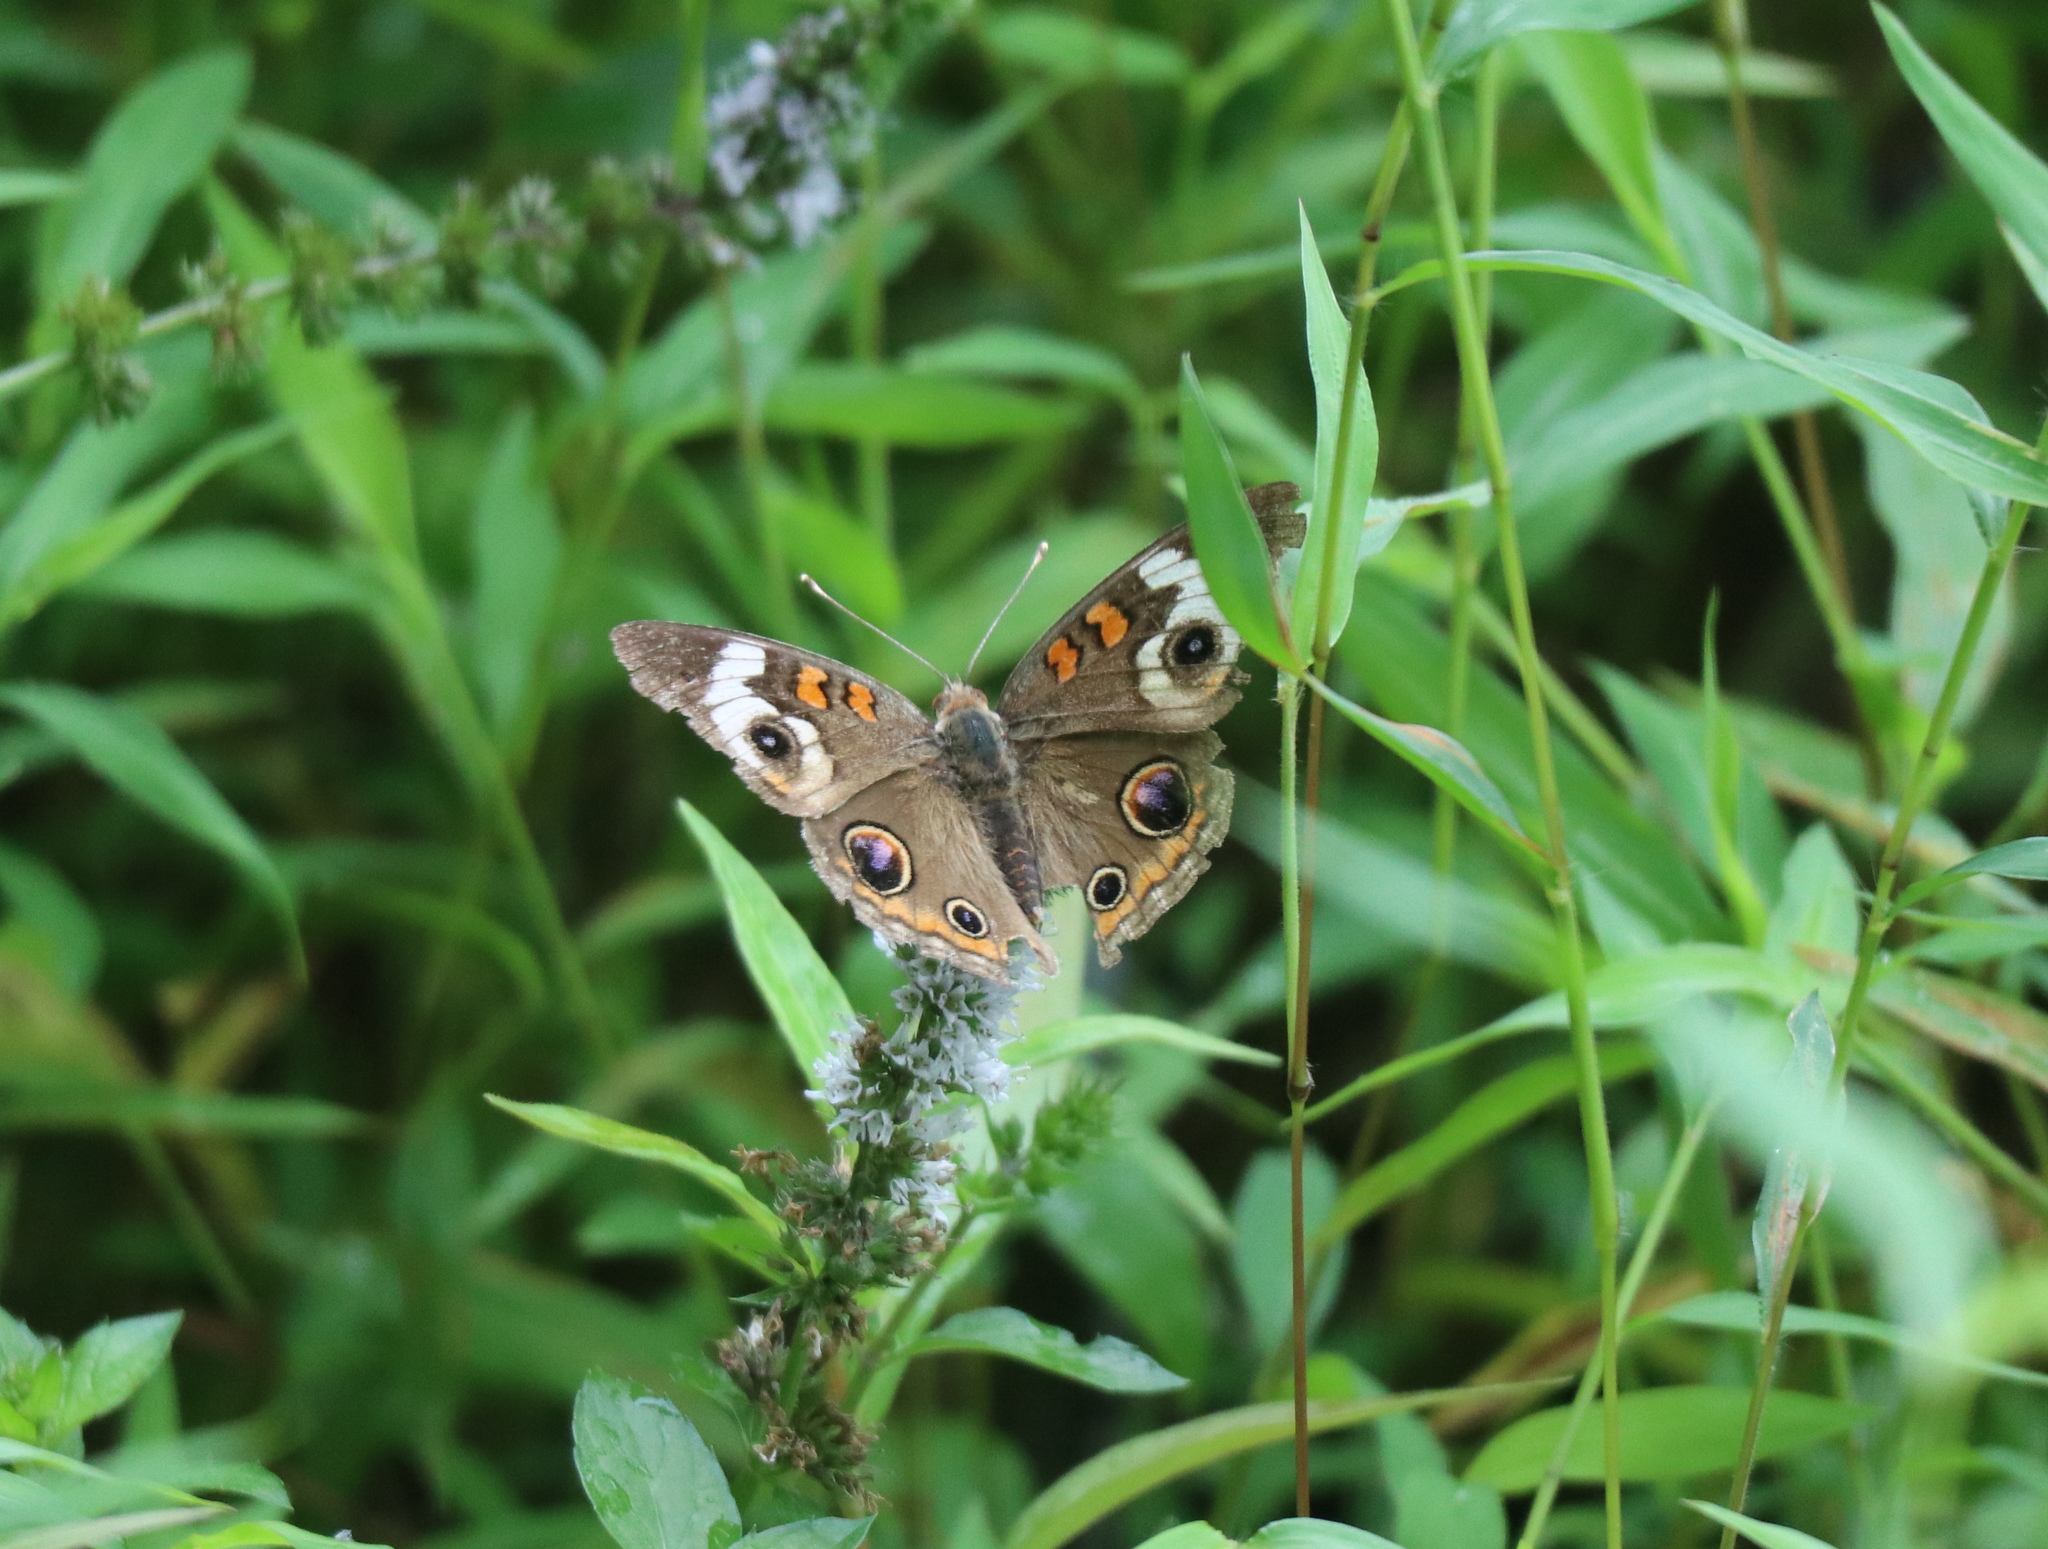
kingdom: Animalia
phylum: Arthropoda
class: Insecta
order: Lepidoptera
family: Nymphalidae
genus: Junonia
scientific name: Junonia coenia
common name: Common buckeye
